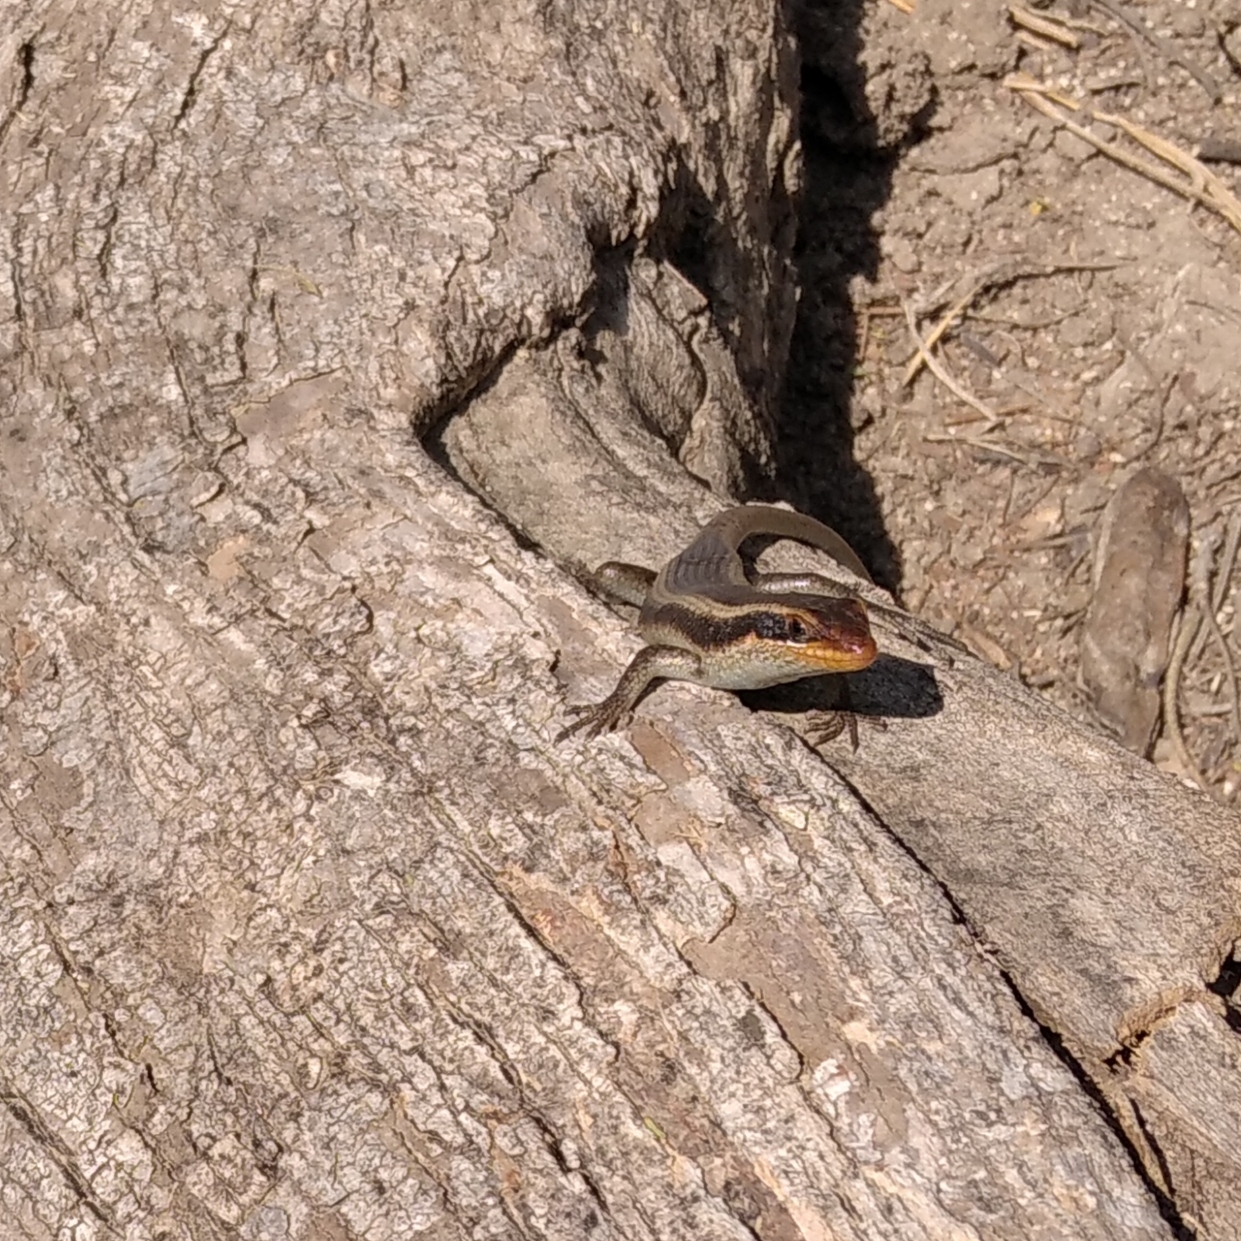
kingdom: Animalia
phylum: Chordata
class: Squamata
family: Scincidae
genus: Trachylepis
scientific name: Trachylepis wahlbergii
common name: Wahlberg’s striped skink
